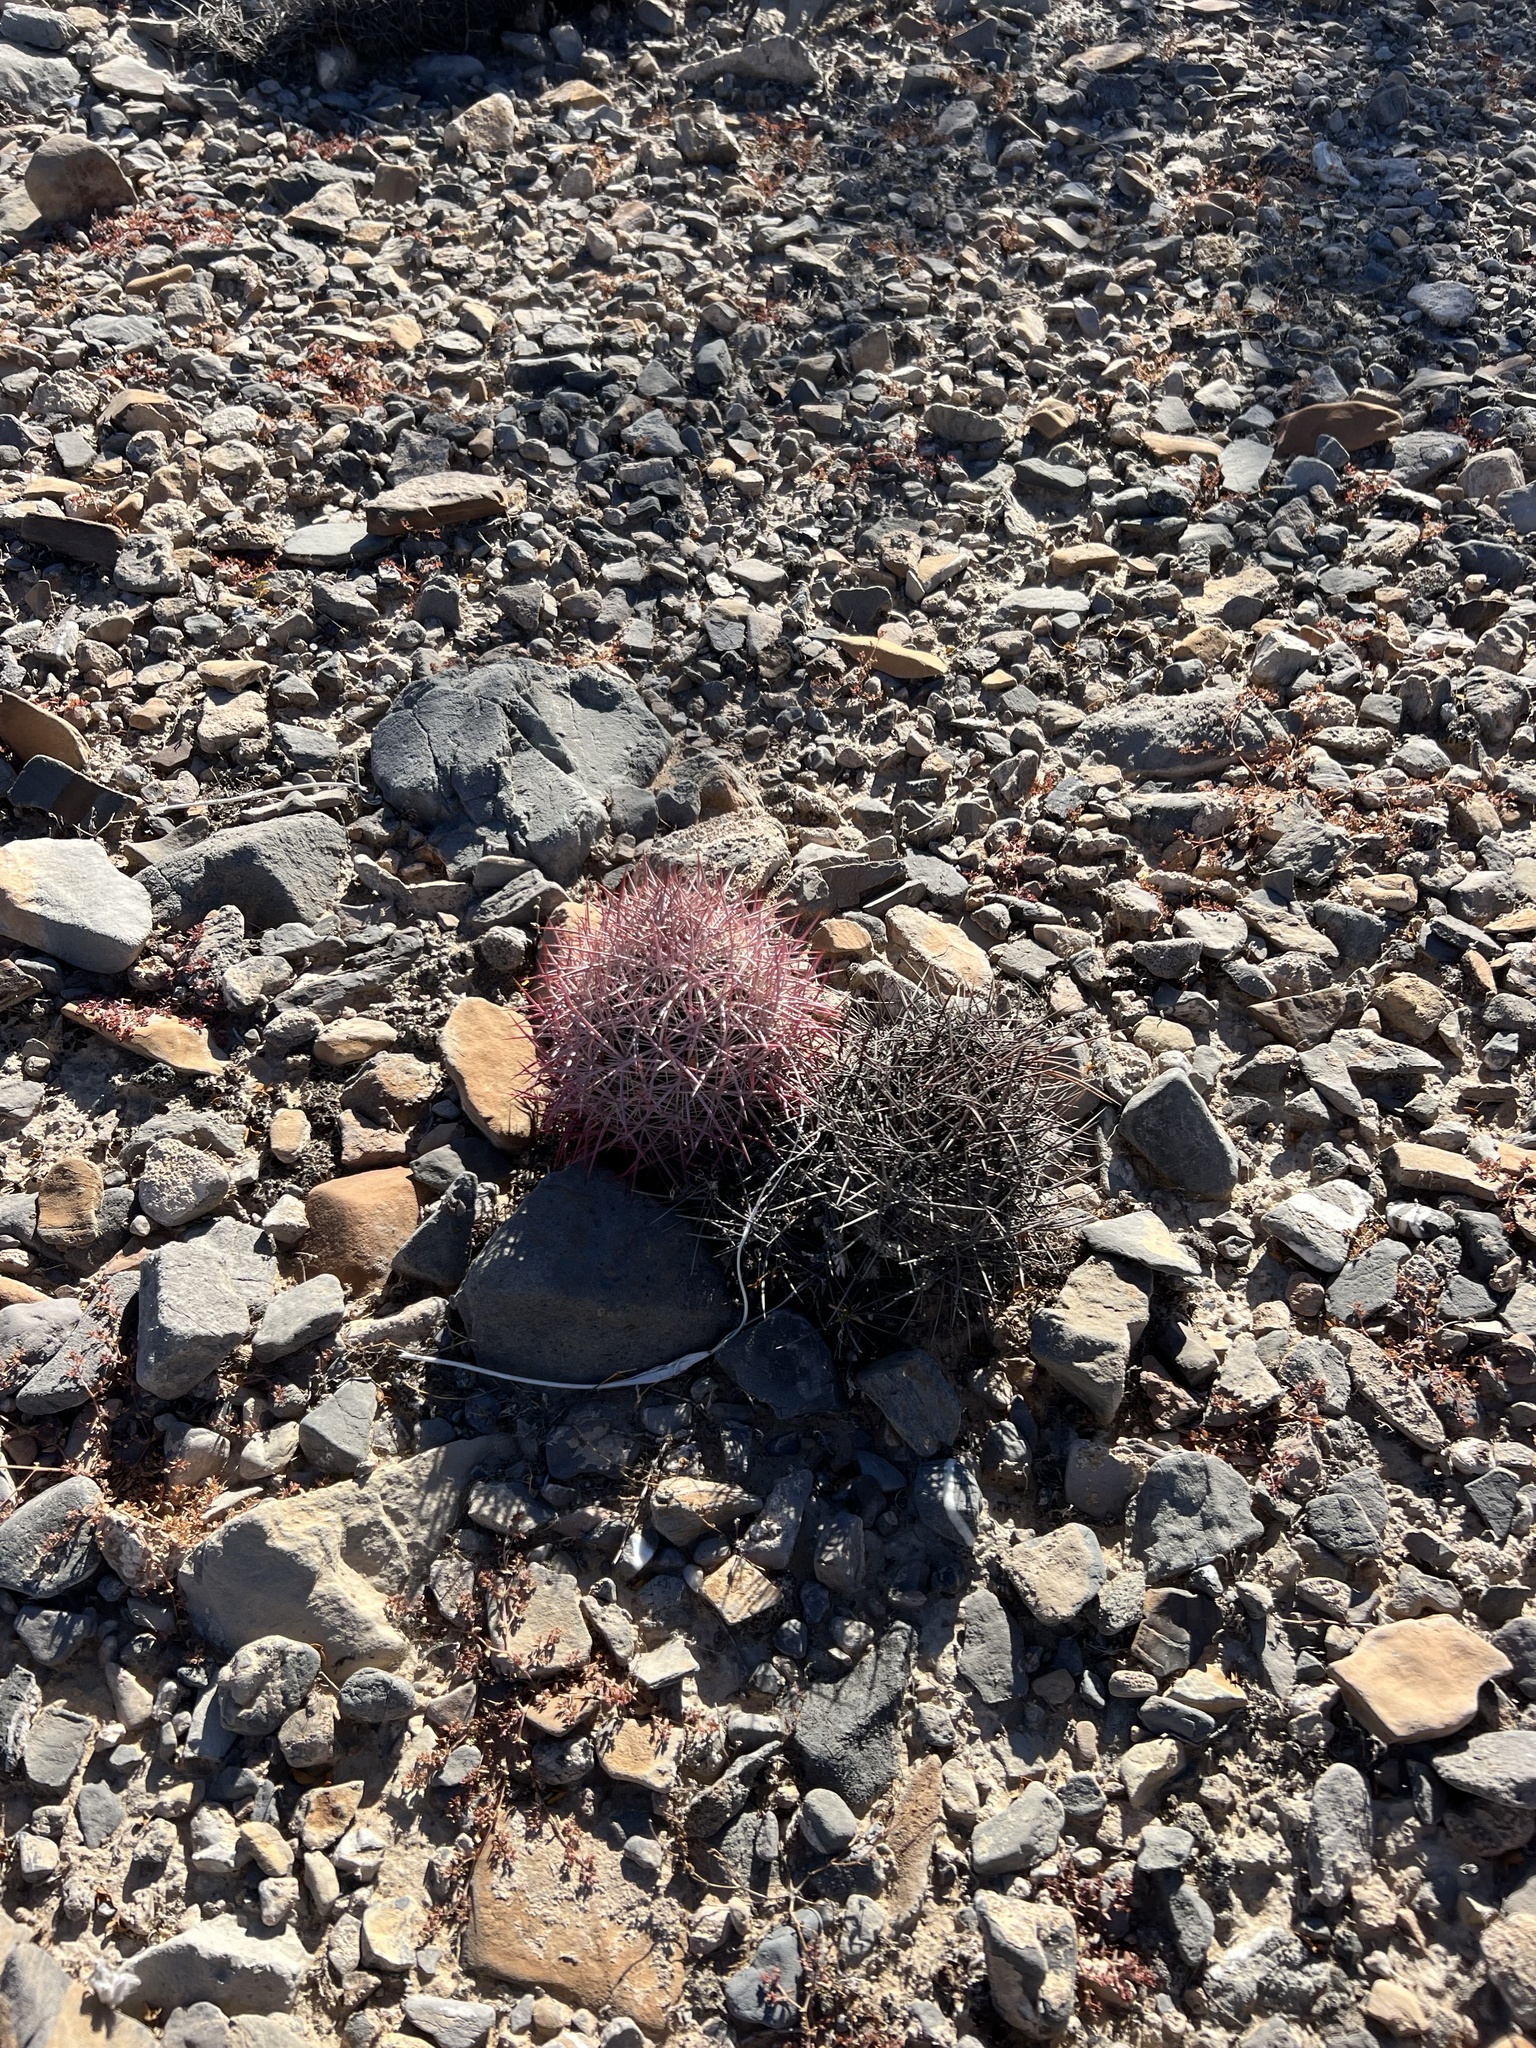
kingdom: Plantae
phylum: Tracheophyta
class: Magnoliopsida
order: Caryophyllales
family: Cactaceae
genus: Sclerocactus
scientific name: Sclerocactus johnsonii
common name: Eight-spine fishhook cactus
